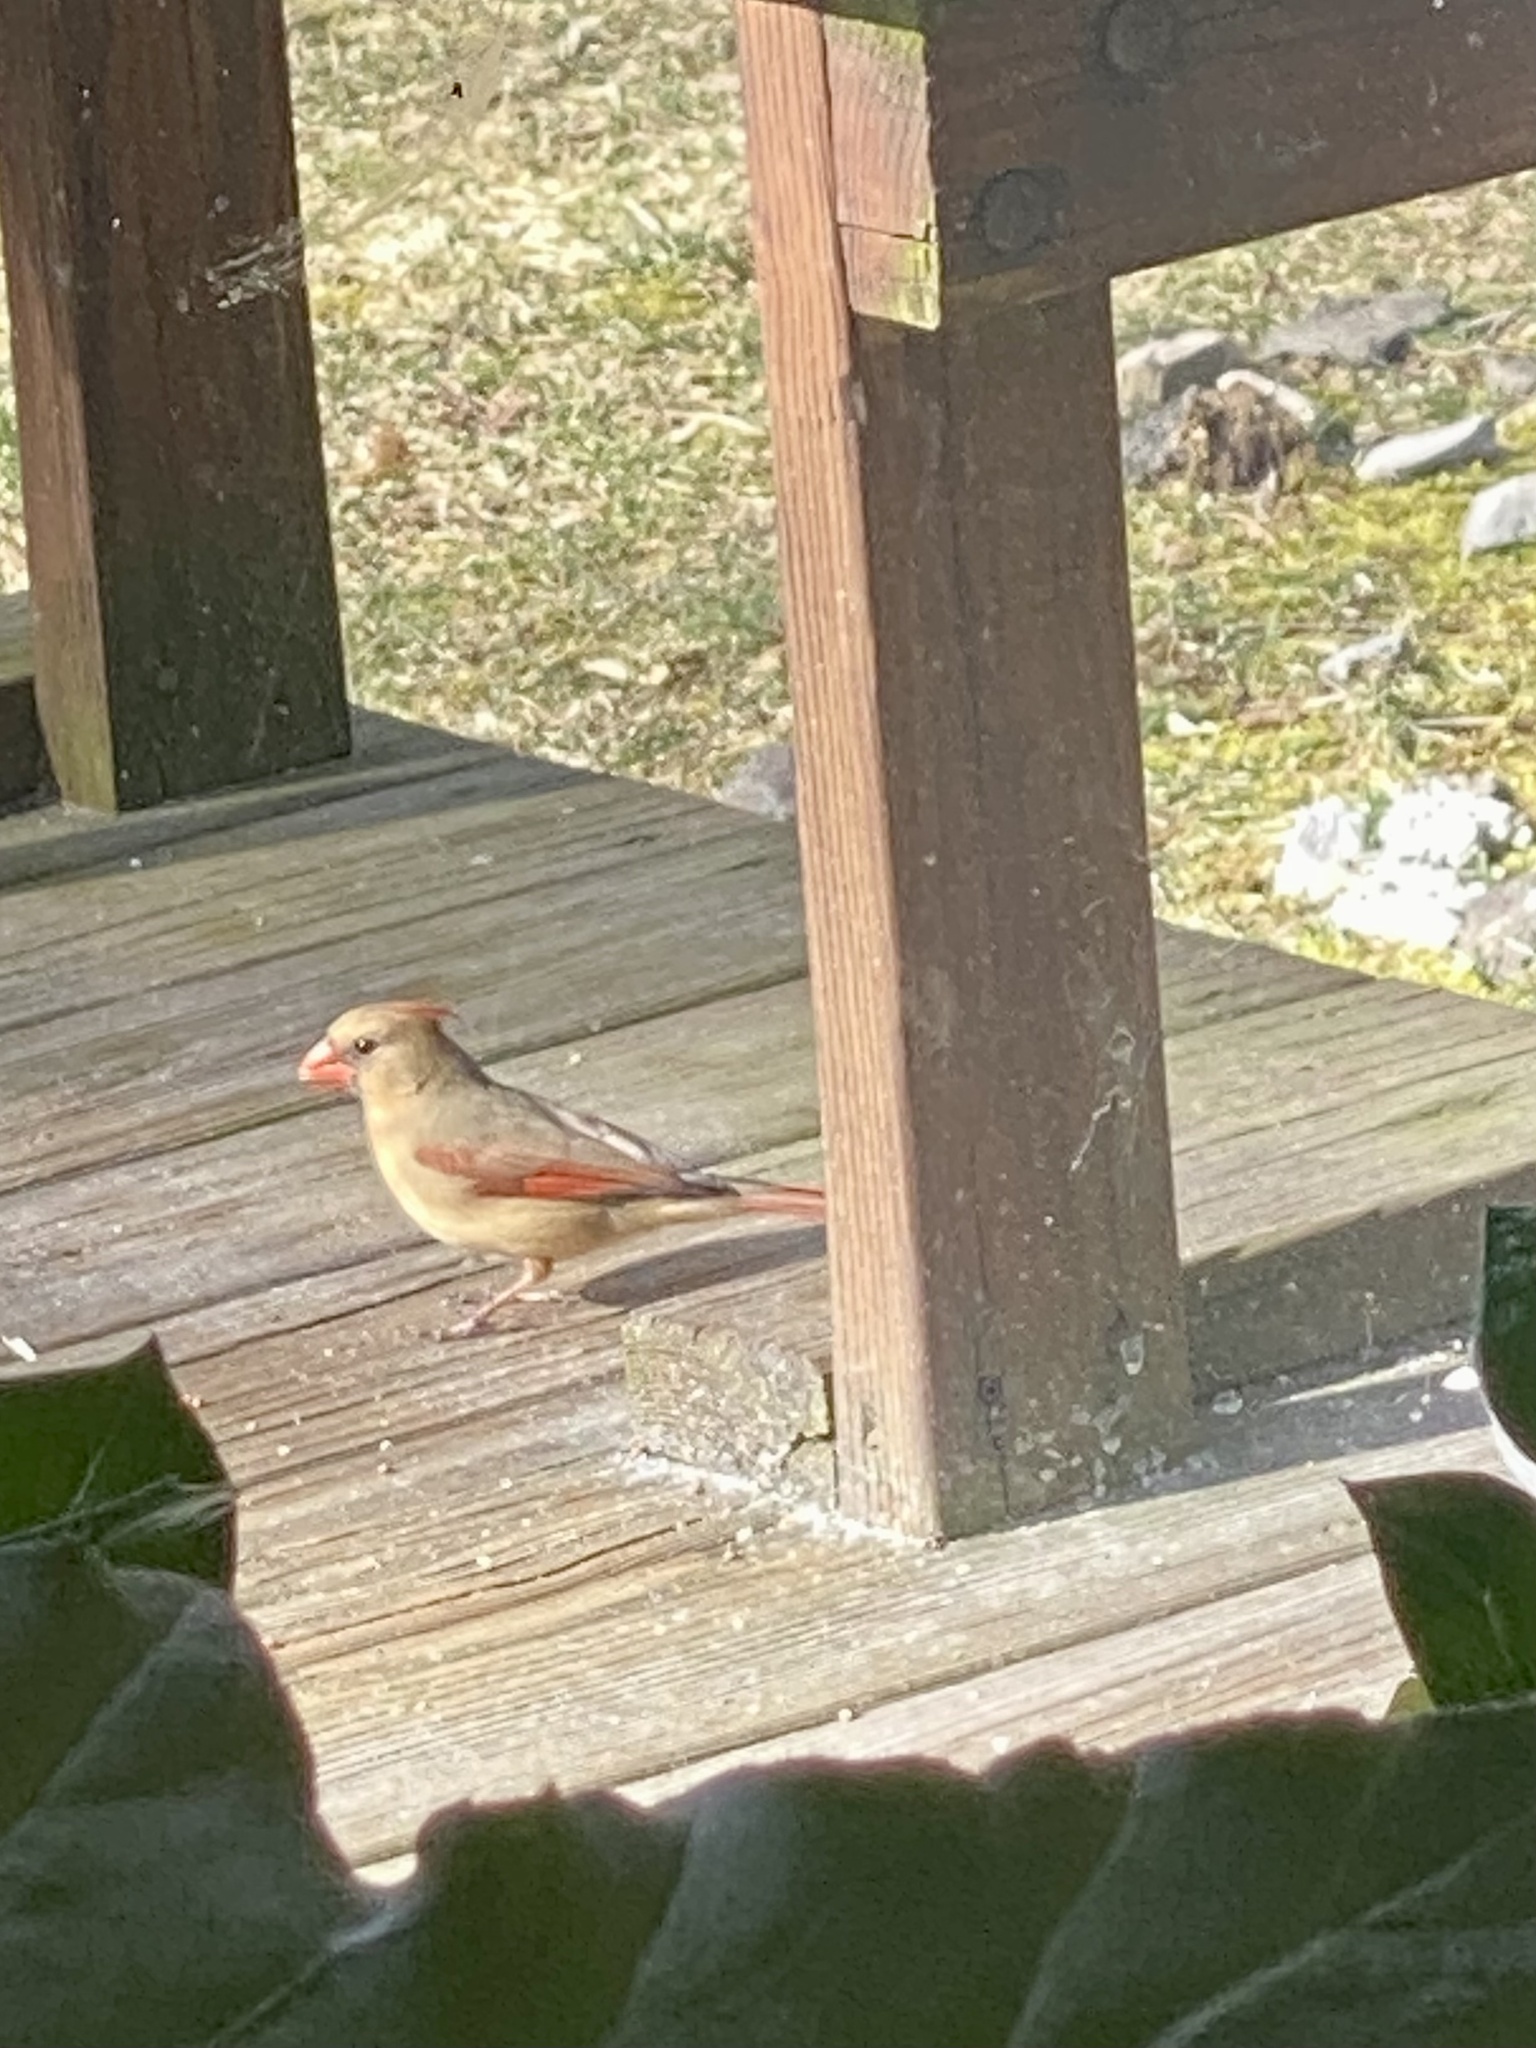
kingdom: Animalia
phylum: Chordata
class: Aves
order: Passeriformes
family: Cardinalidae
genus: Cardinalis
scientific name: Cardinalis cardinalis
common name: Northern cardinal
